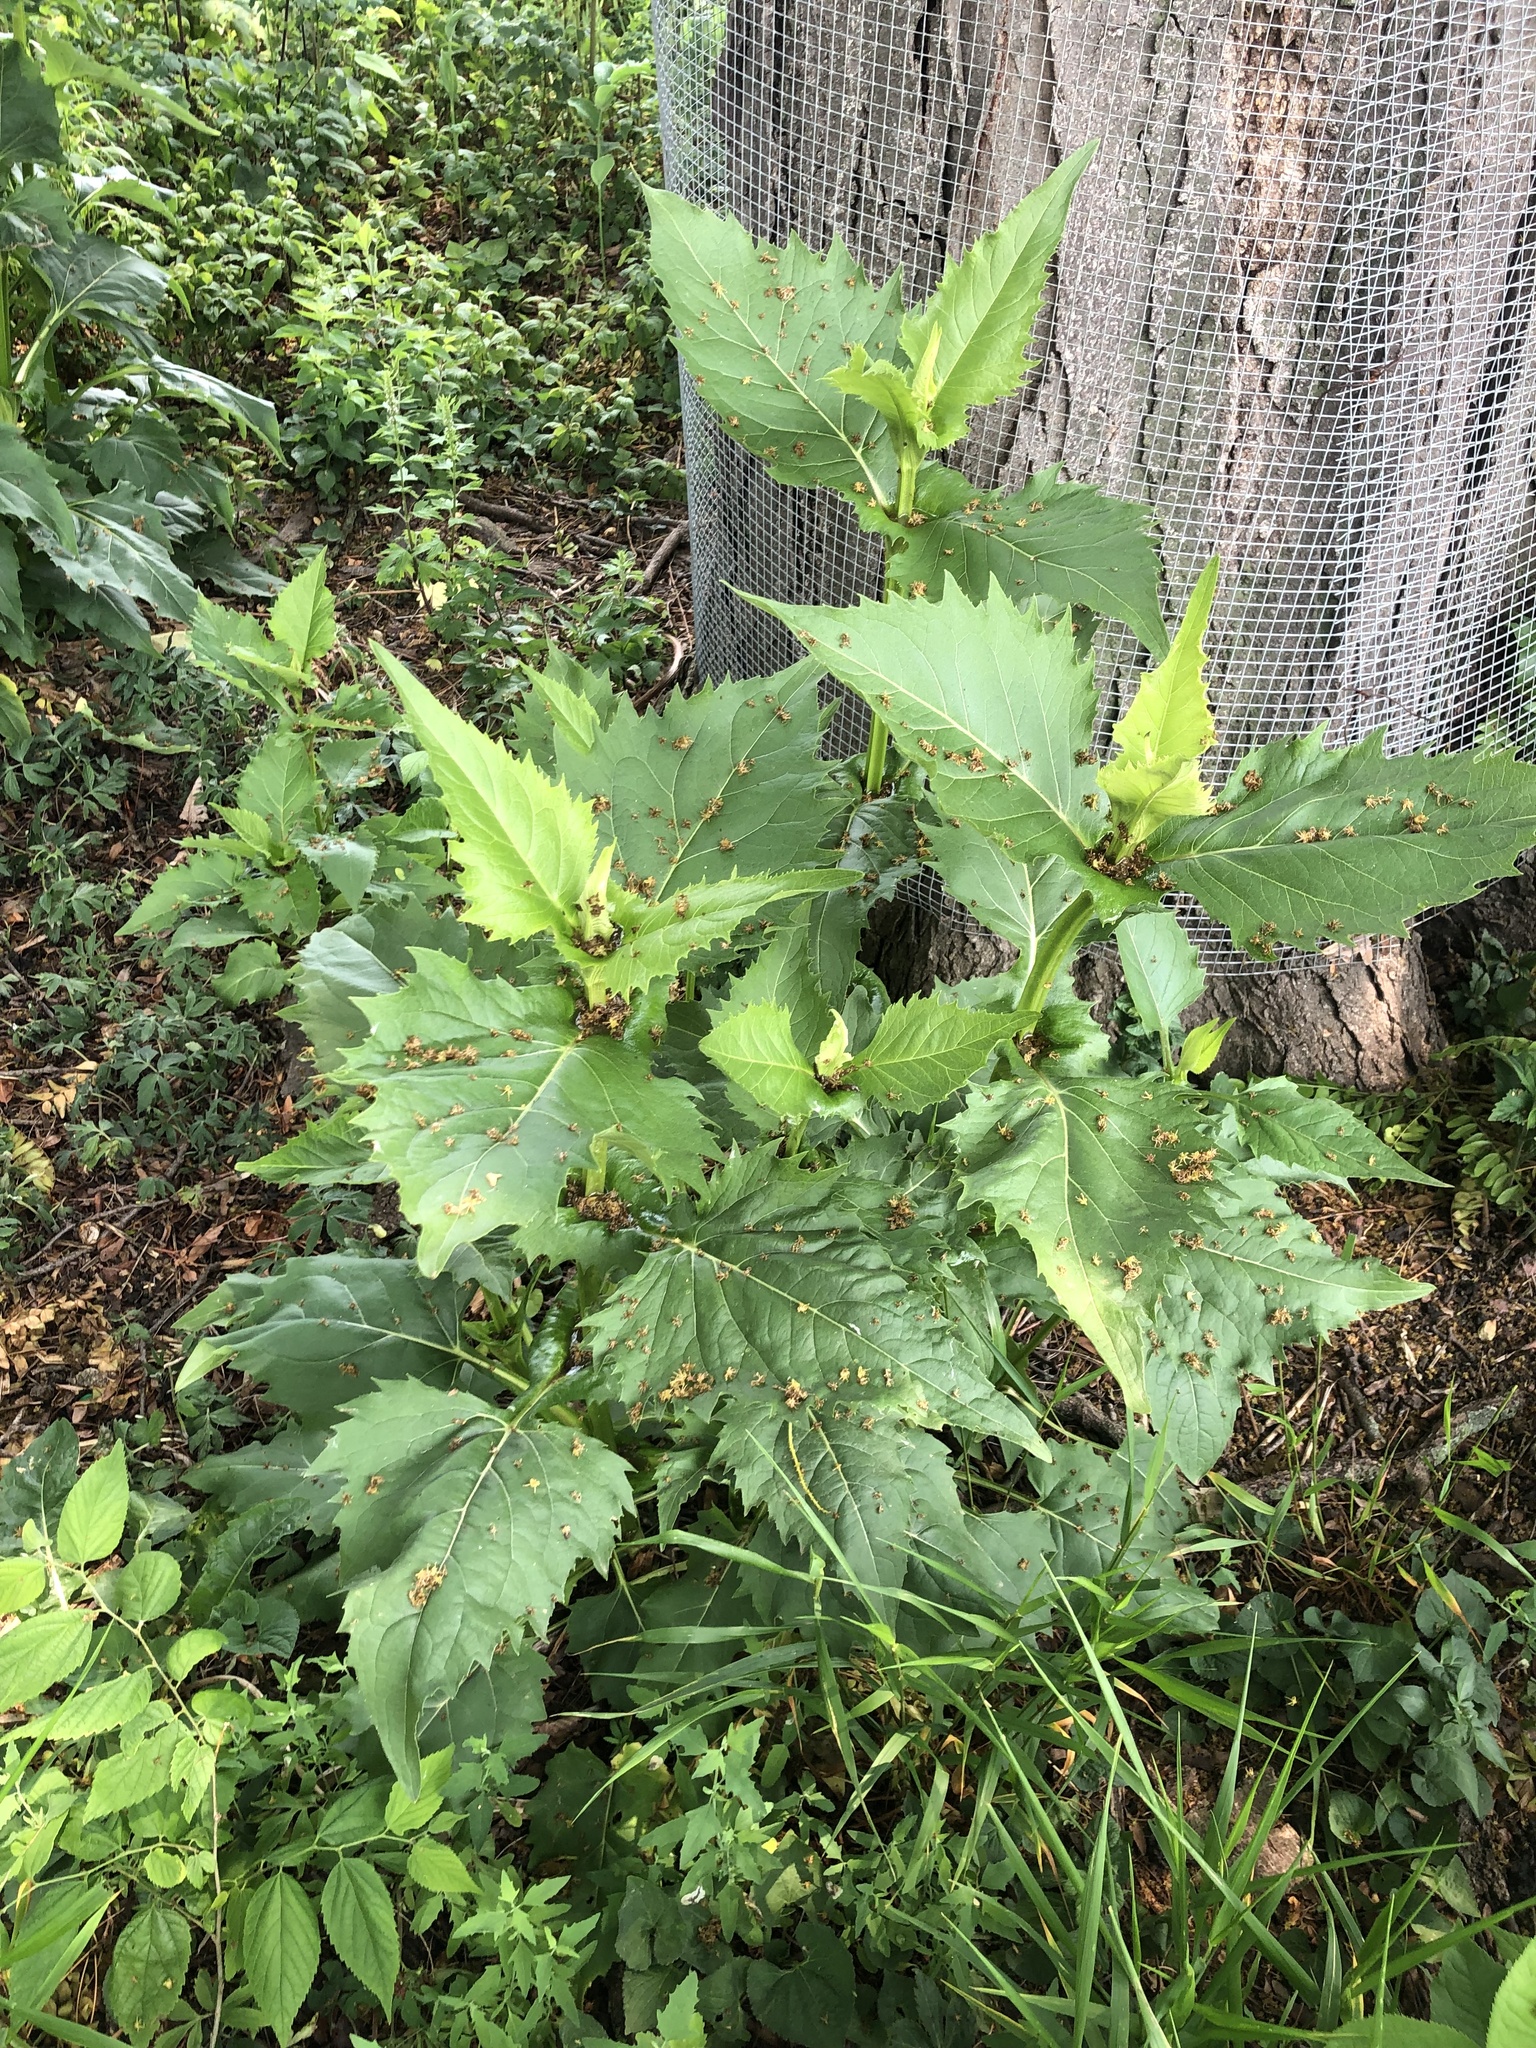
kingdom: Plantae
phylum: Tracheophyta
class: Magnoliopsida
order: Asterales
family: Asteraceae
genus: Silphium
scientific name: Silphium perfoliatum
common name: Cup-plant
